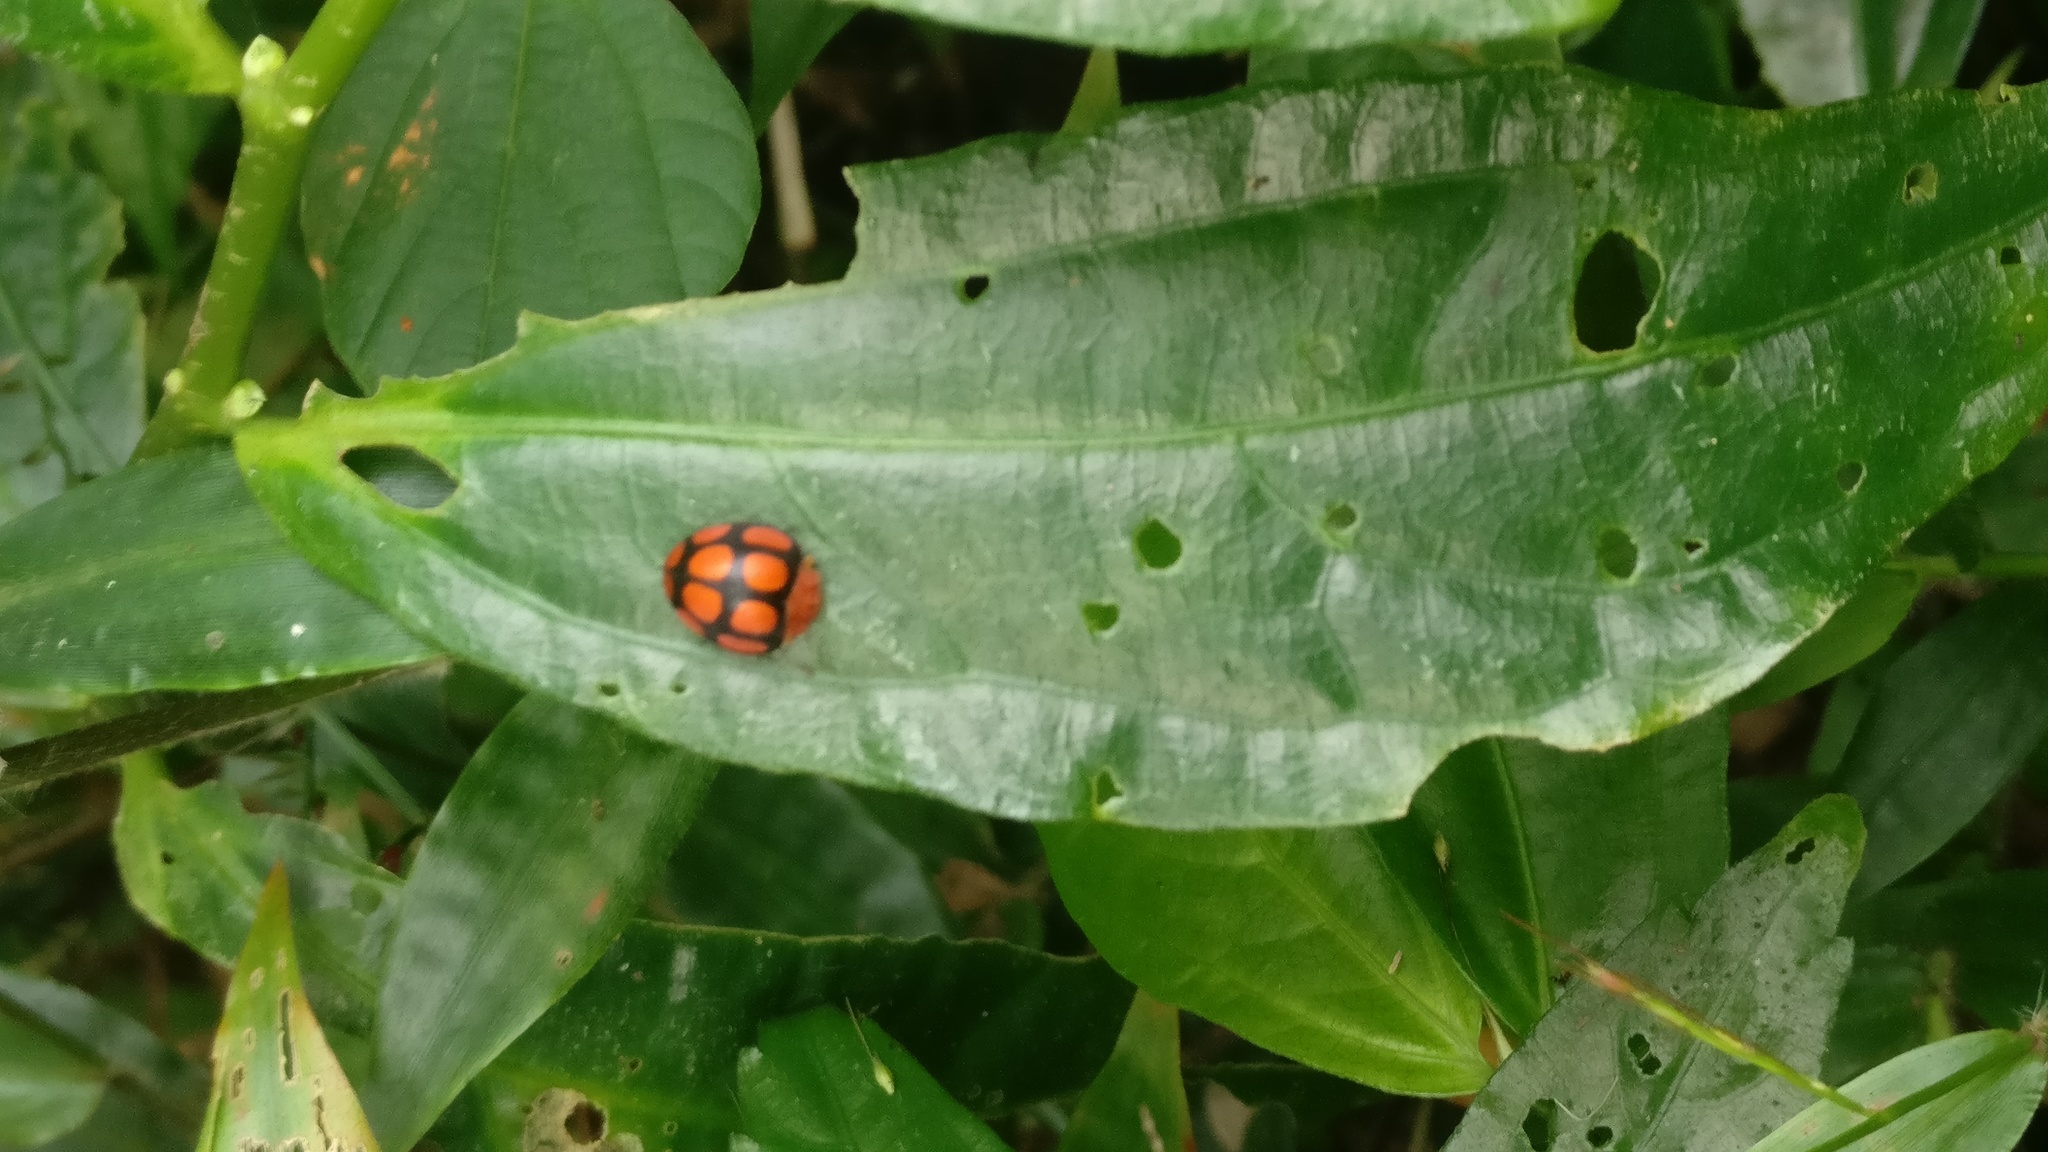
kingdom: Animalia
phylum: Arthropoda
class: Insecta
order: Coleoptera
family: Coccinellidae
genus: Epilachna
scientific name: Epilachna
